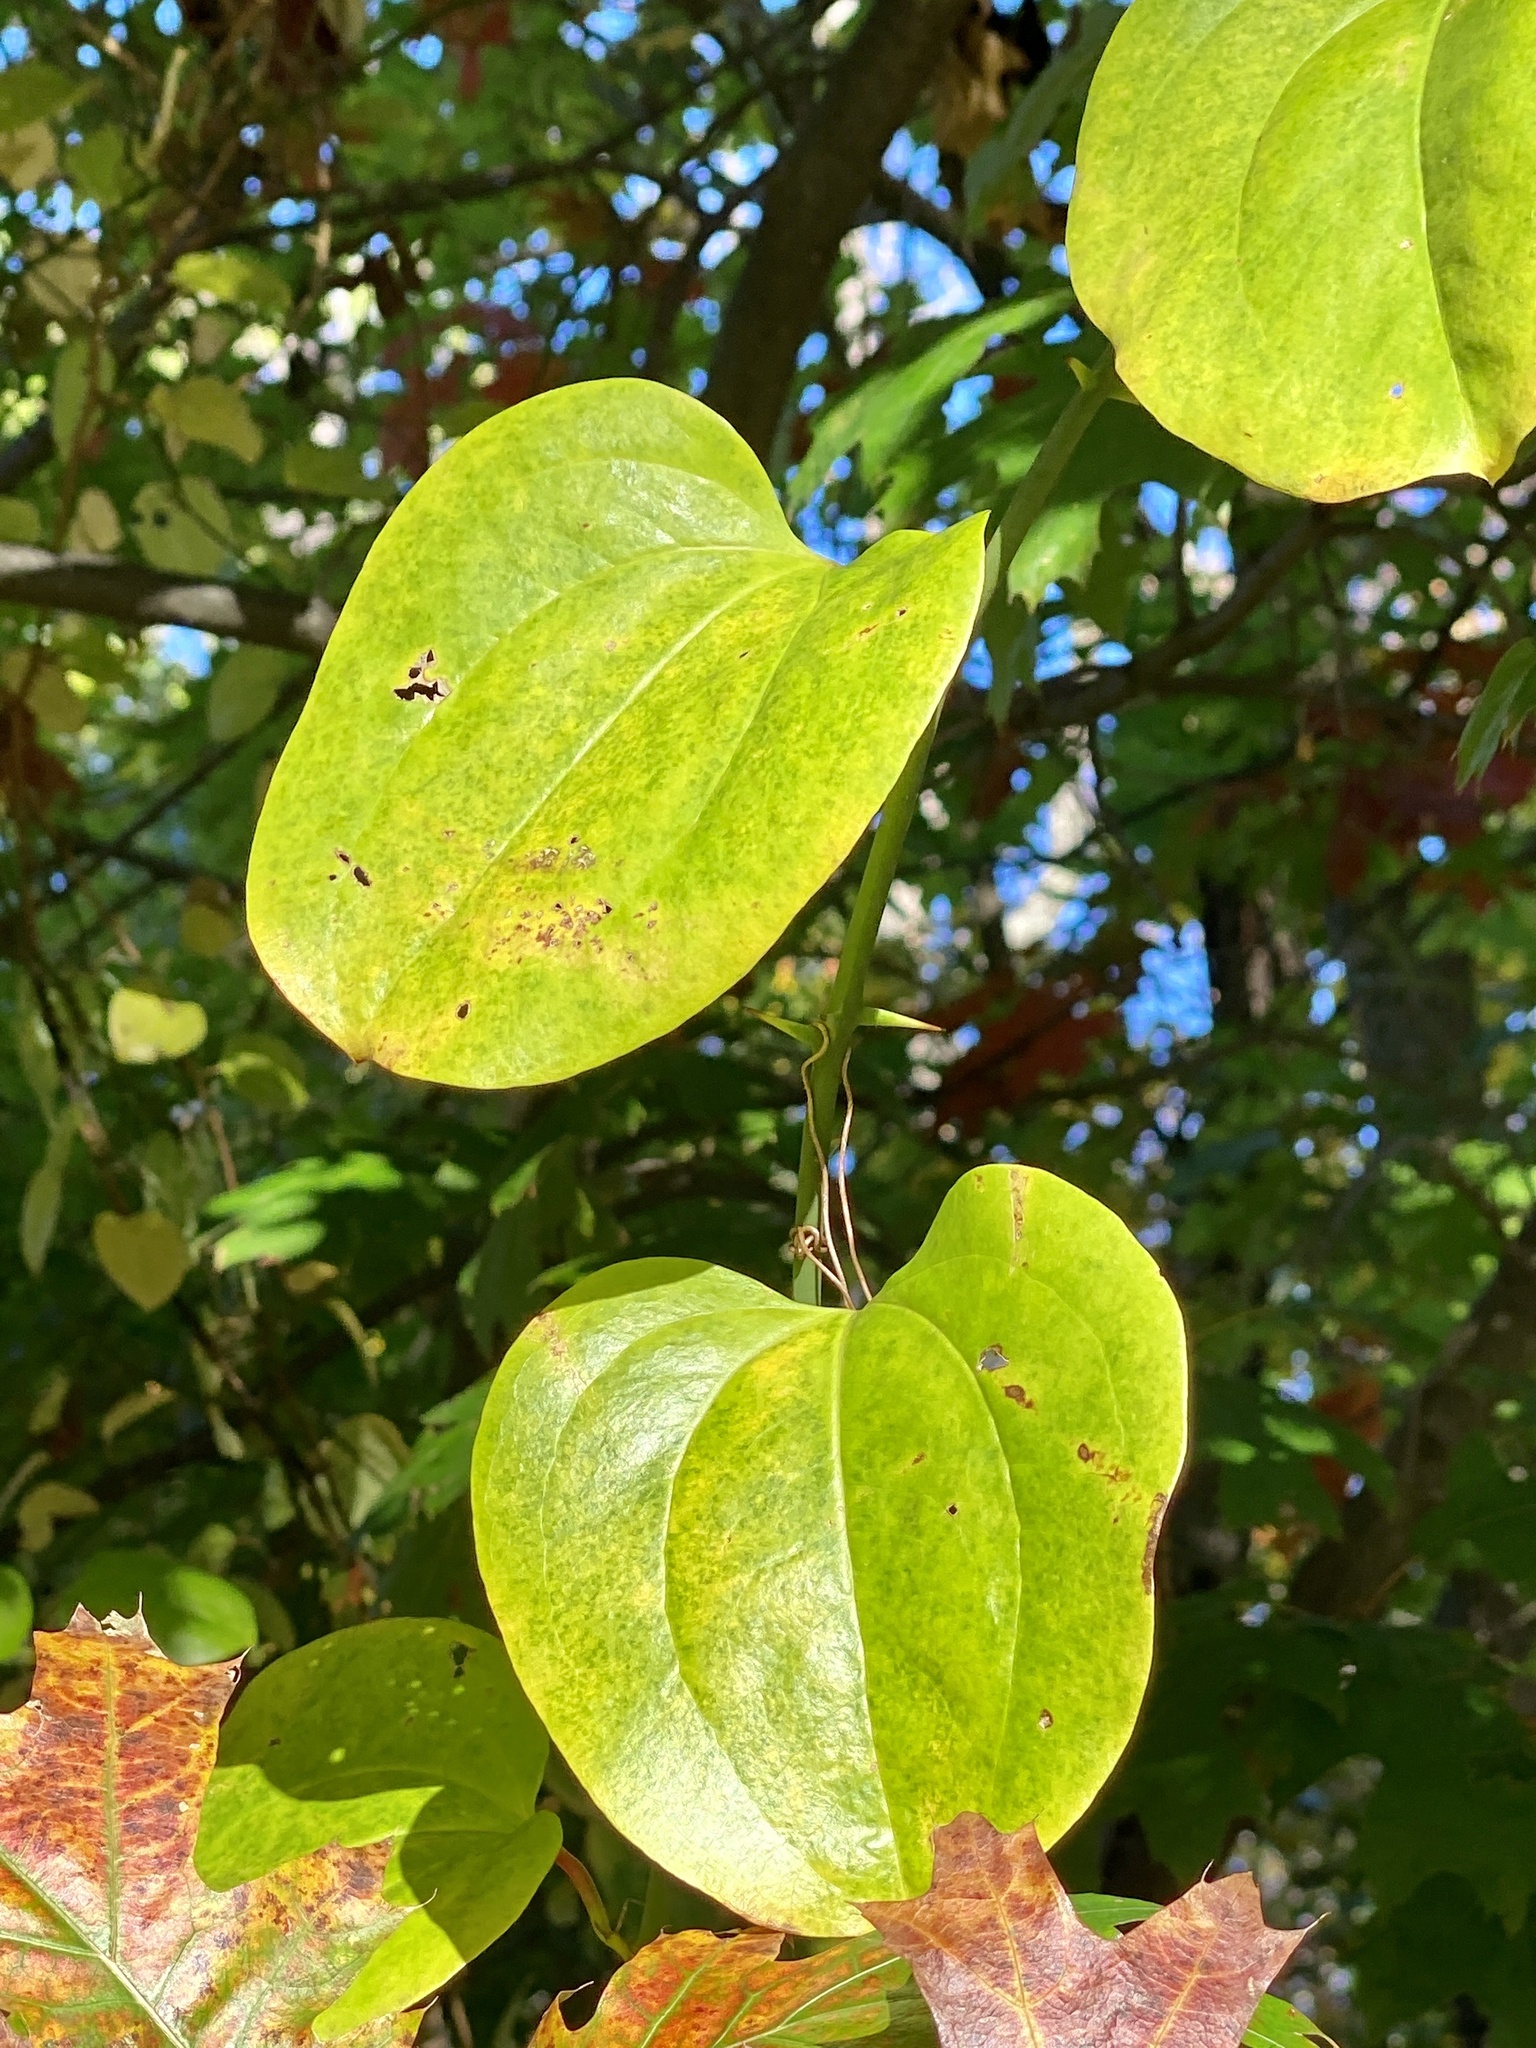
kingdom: Plantae
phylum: Tracheophyta
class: Liliopsida
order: Liliales
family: Smilacaceae
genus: Smilax
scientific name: Smilax rotundifolia
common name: Bullbriar
